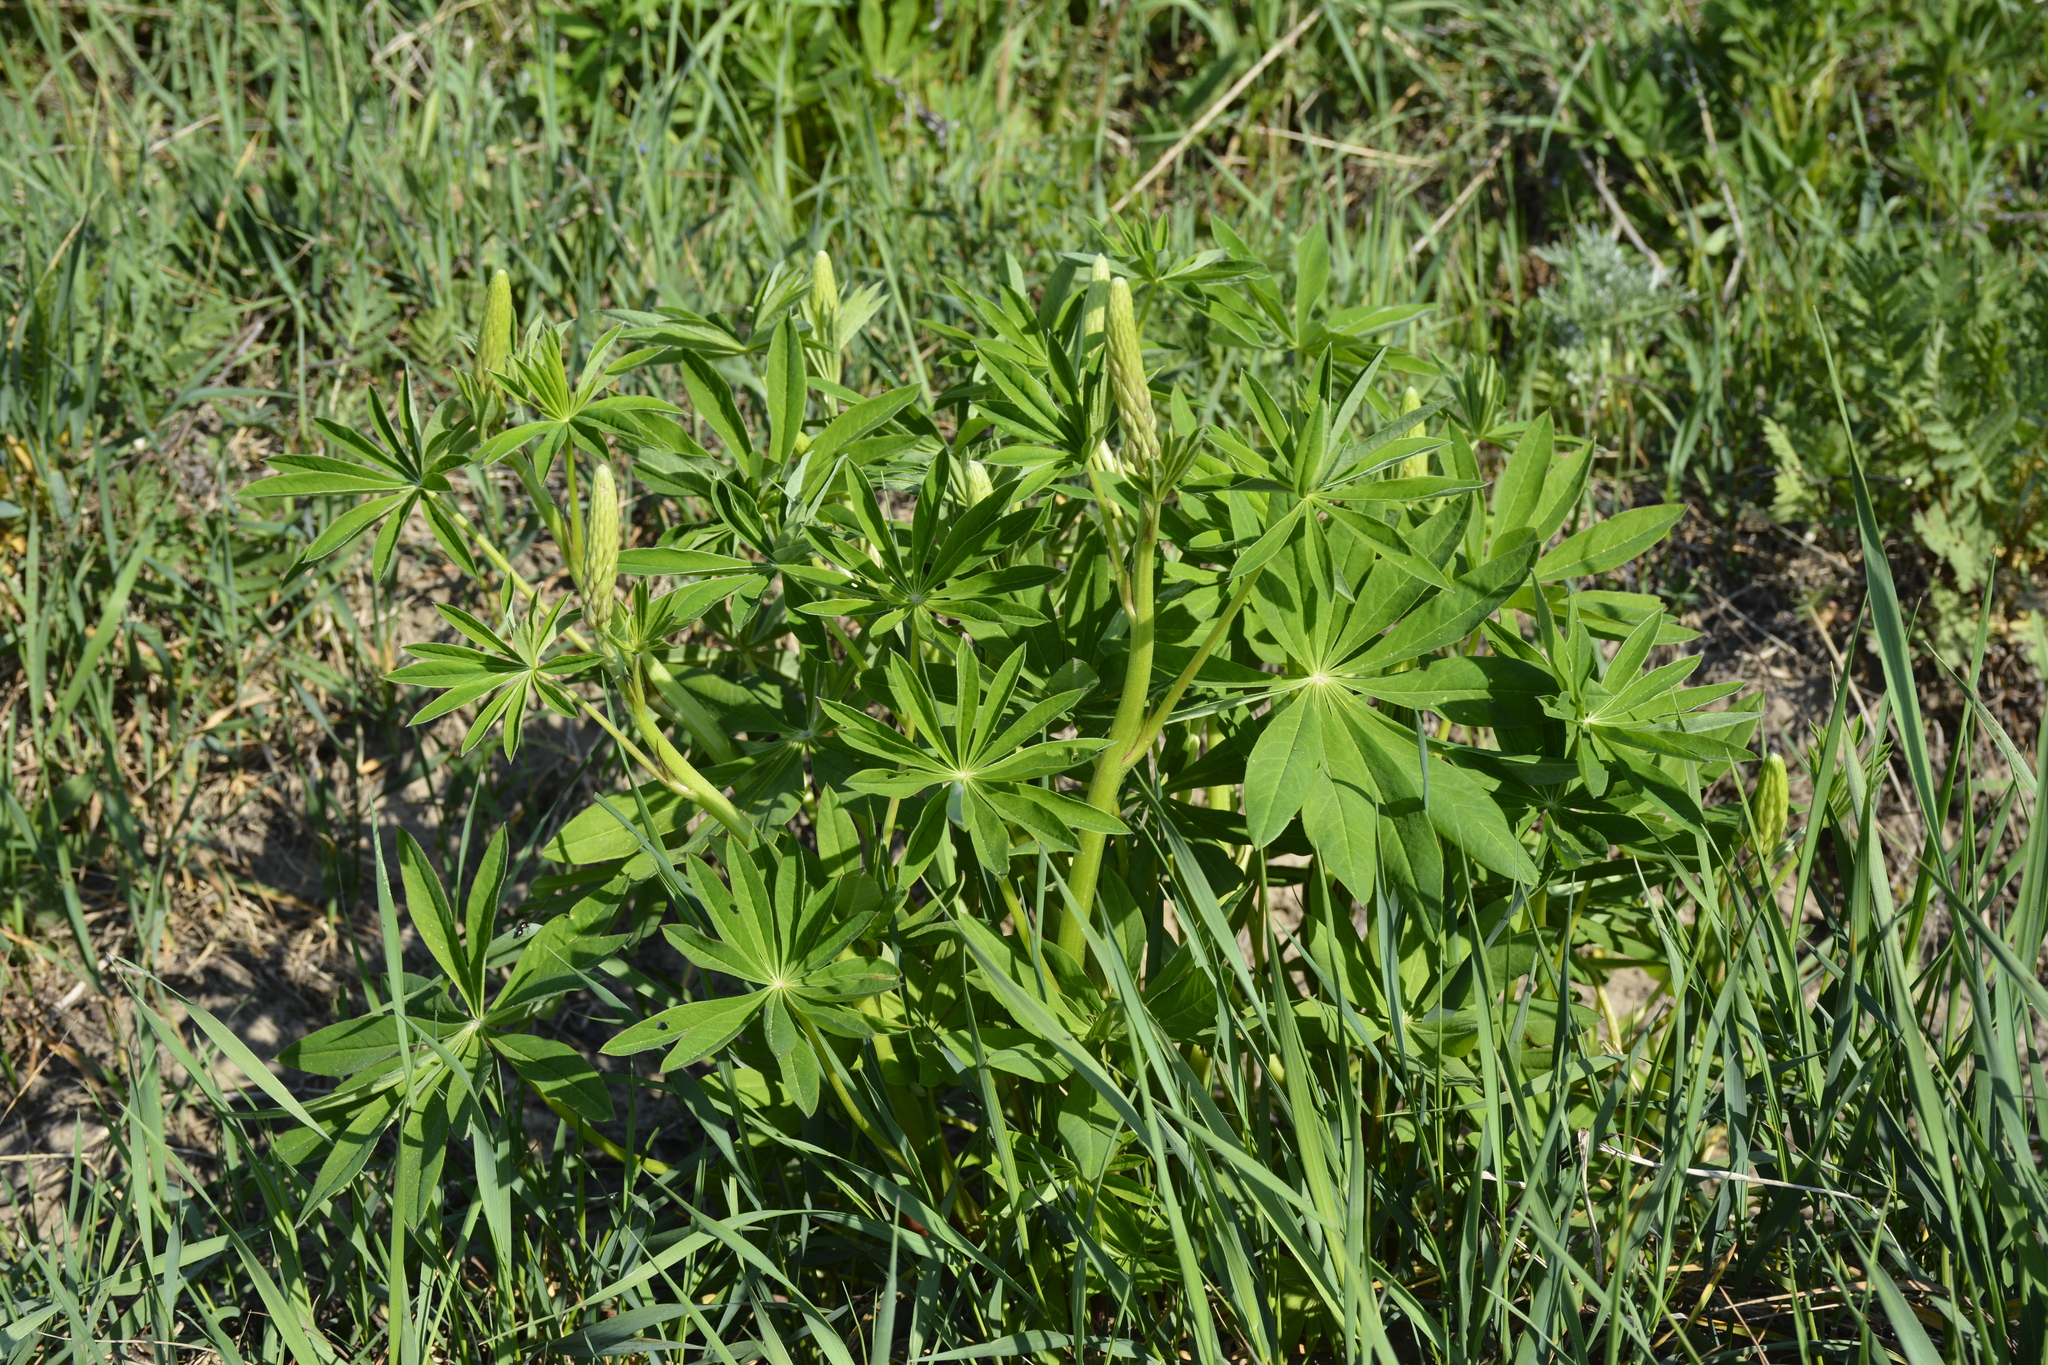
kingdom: Plantae
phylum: Tracheophyta
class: Magnoliopsida
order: Fabales
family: Fabaceae
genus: Lupinus
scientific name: Lupinus polyphyllus
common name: Garden lupin
